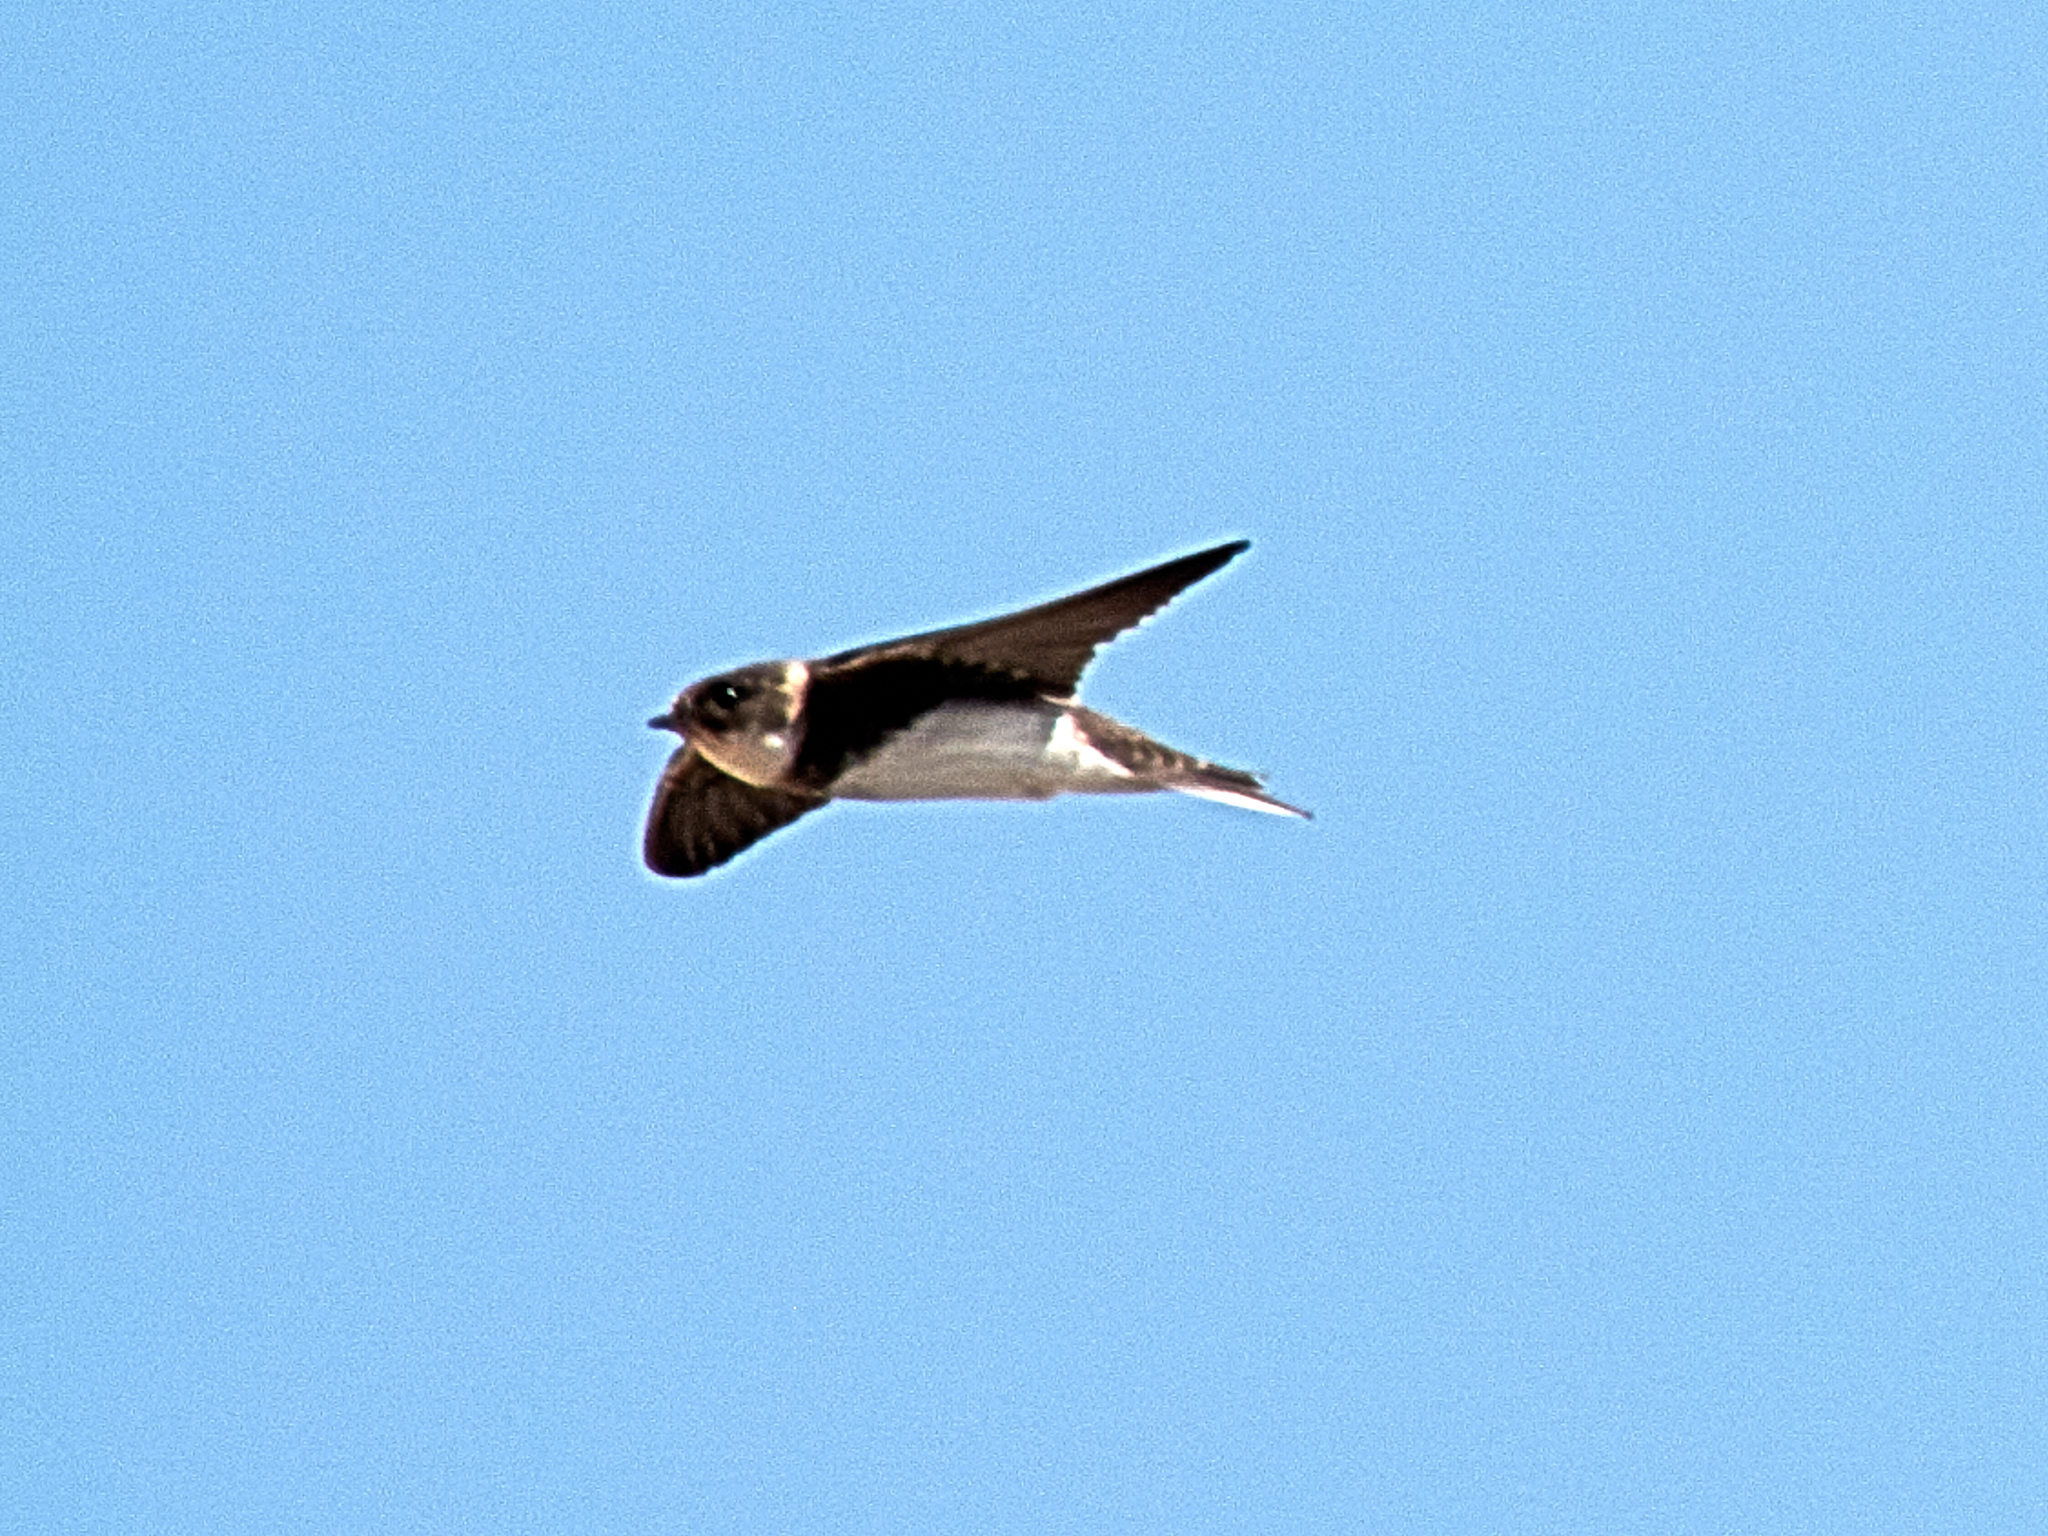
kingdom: Animalia
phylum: Chordata
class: Aves
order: Passeriformes
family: Hirundinidae
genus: Riparia
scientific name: Riparia riparia
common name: Sand martin
